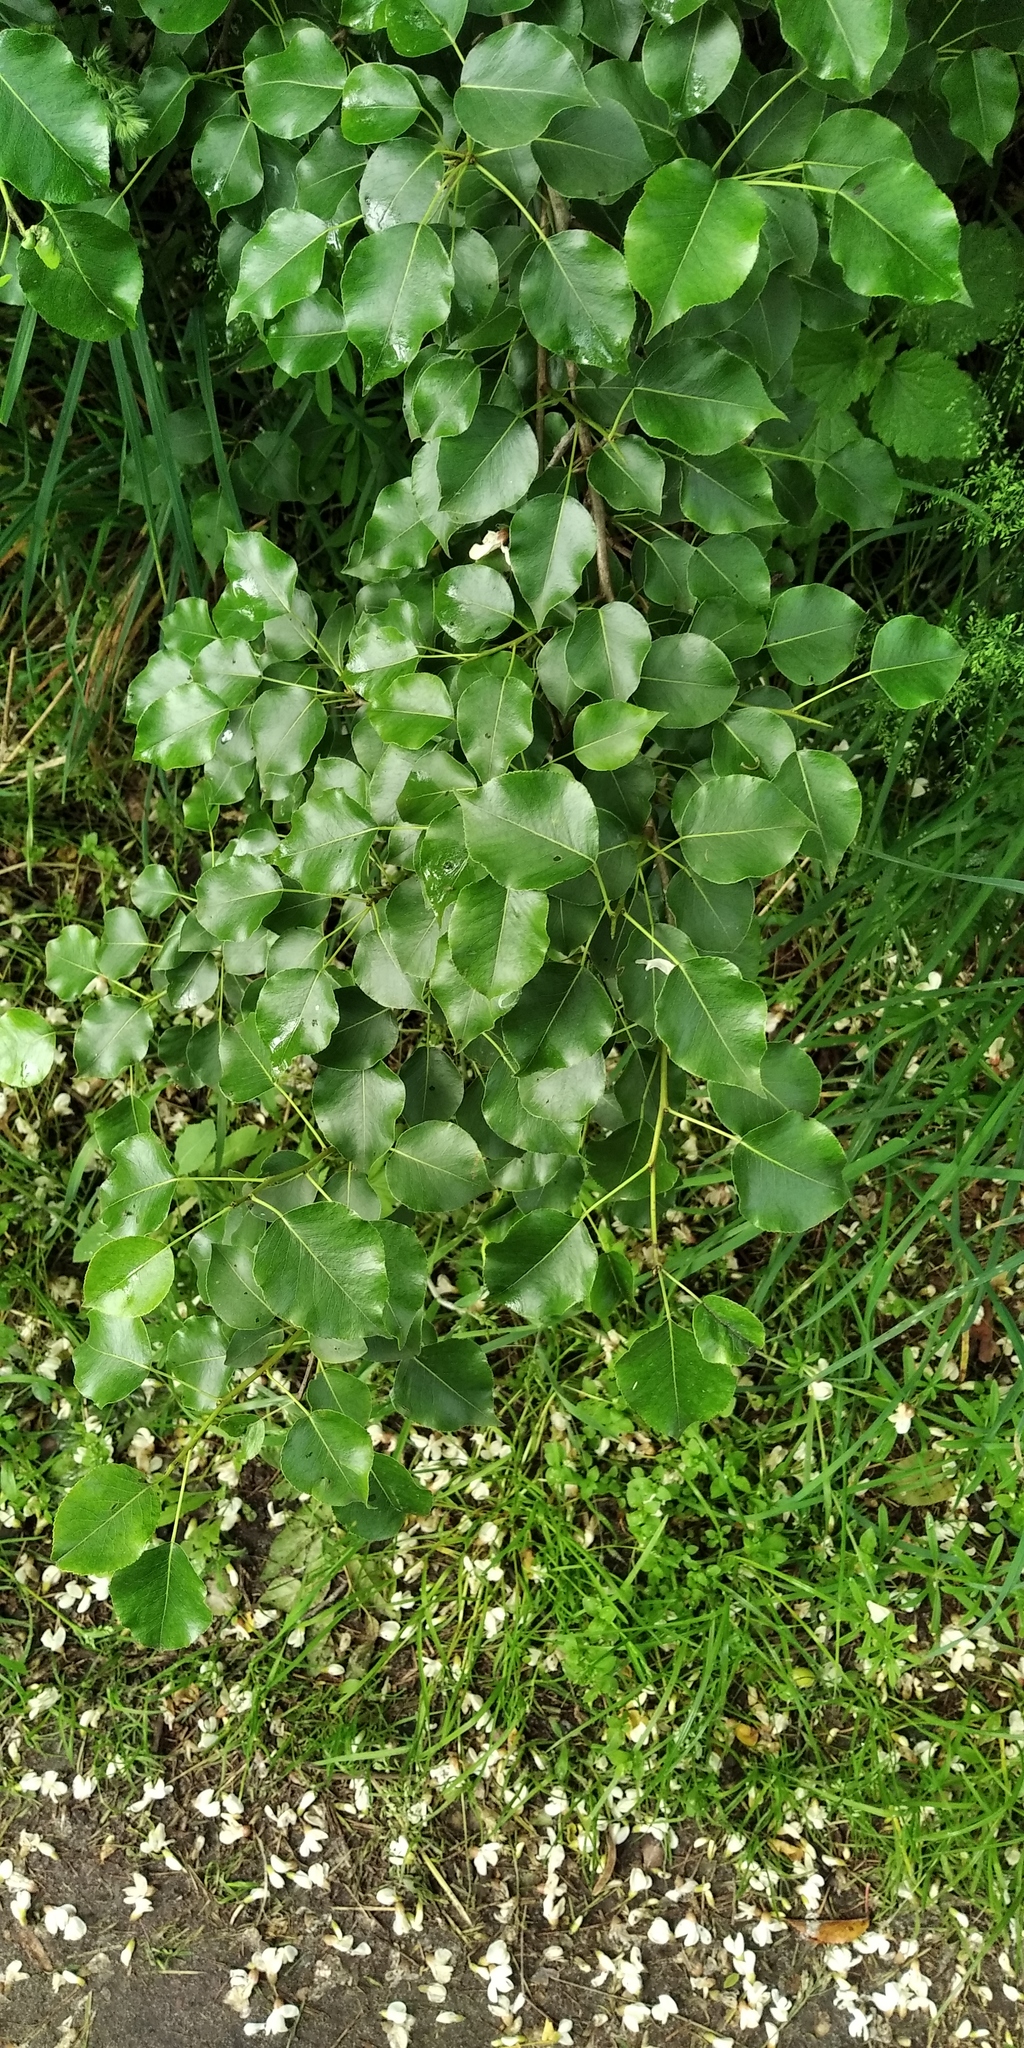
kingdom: Plantae
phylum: Tracheophyta
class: Magnoliopsida
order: Rosales
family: Rosaceae
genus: Pyrus
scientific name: Pyrus communis
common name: Pear
